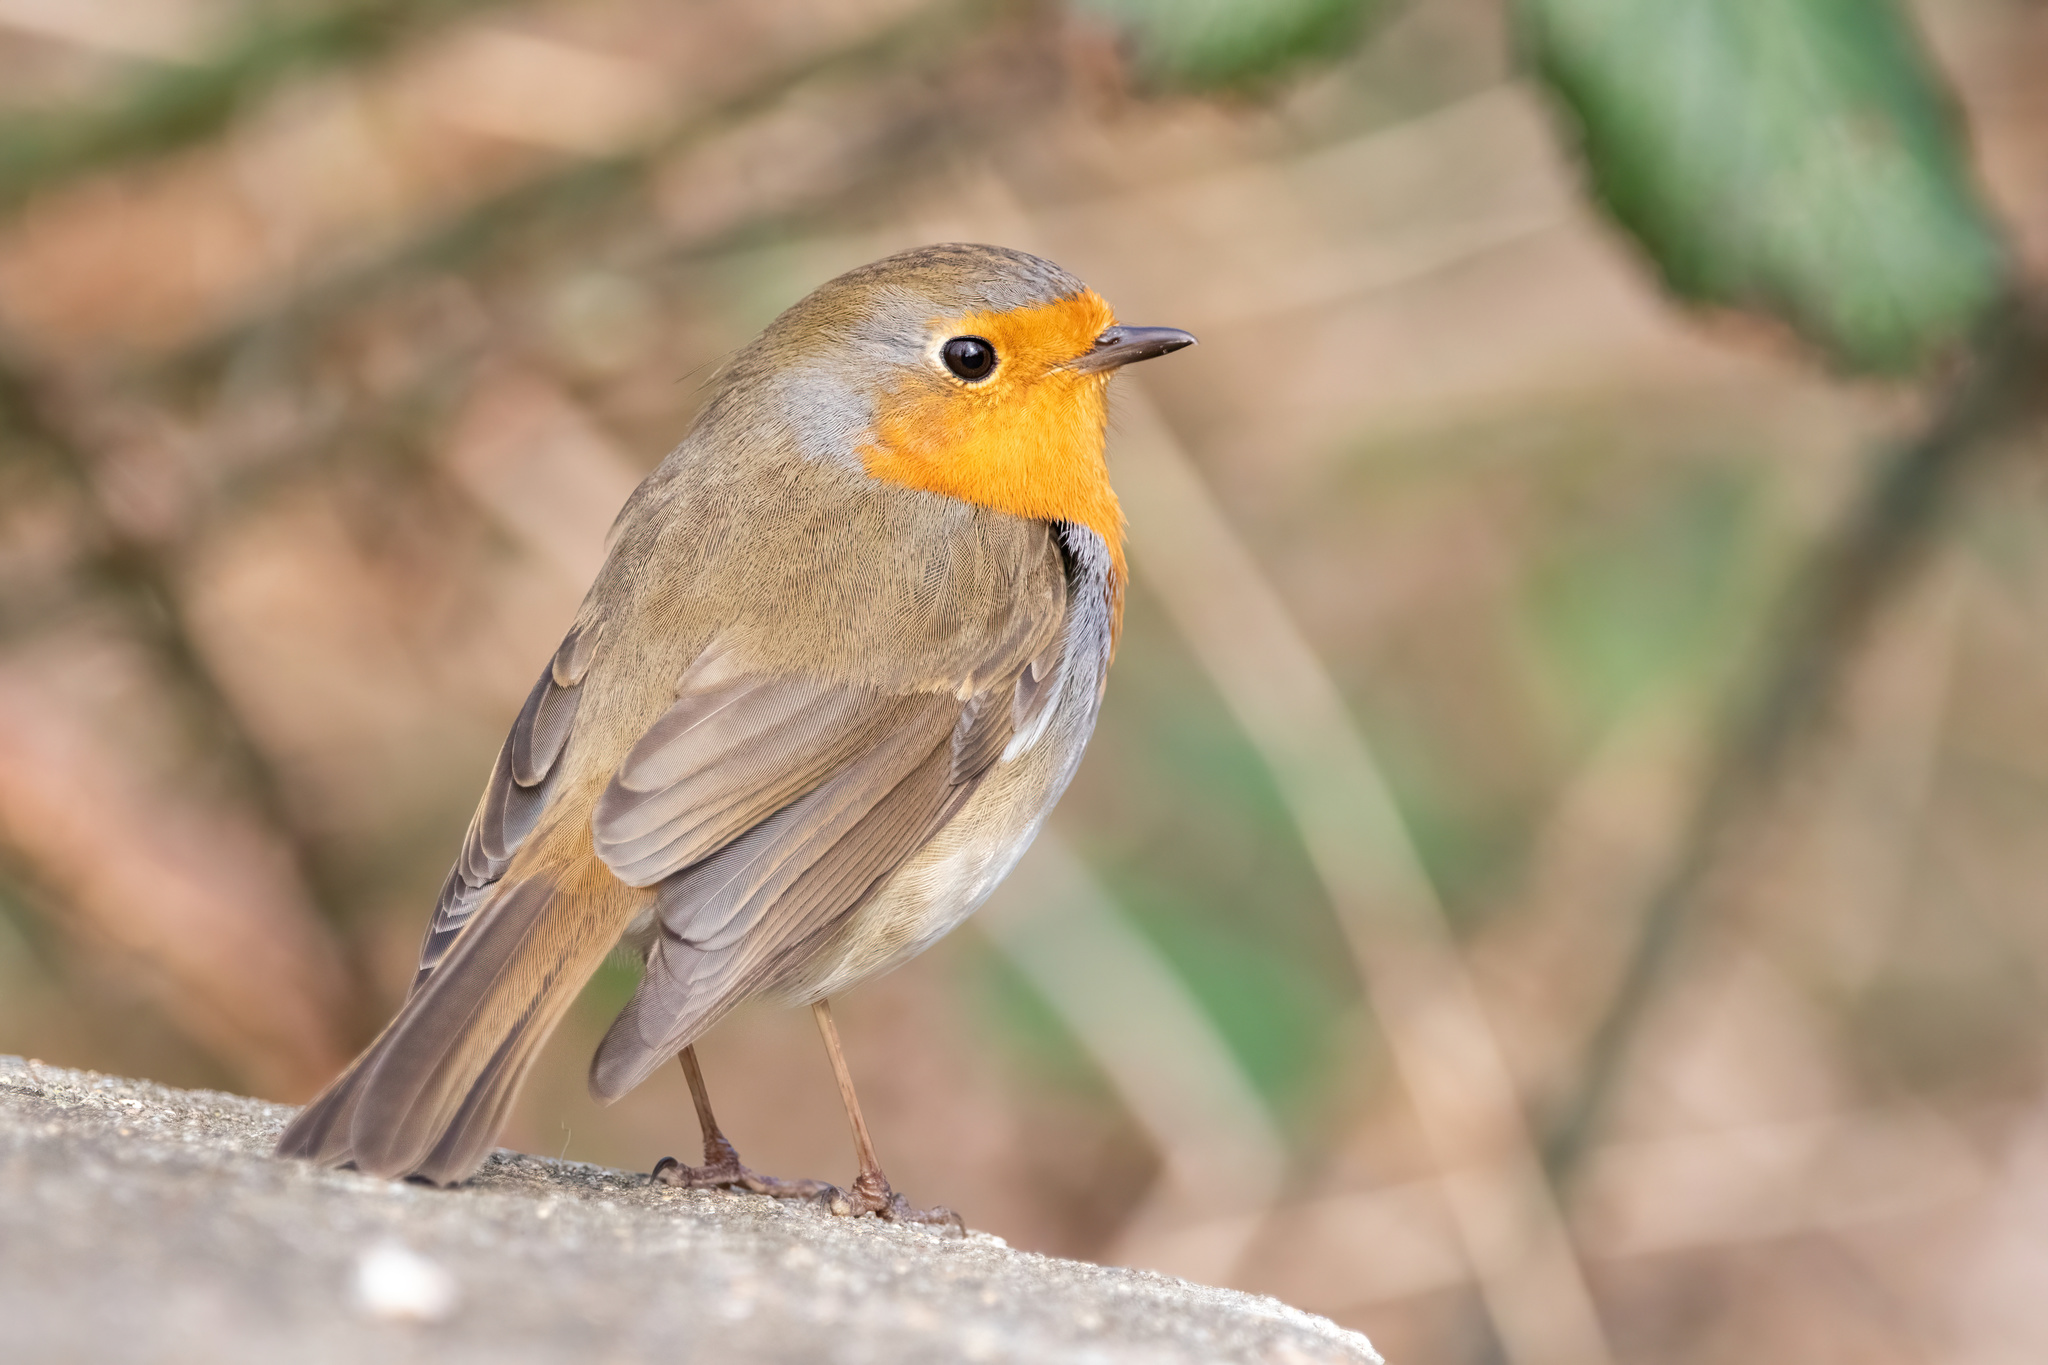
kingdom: Animalia
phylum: Chordata
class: Aves
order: Passeriformes
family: Muscicapidae
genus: Erithacus
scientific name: Erithacus rubecula
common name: European robin
